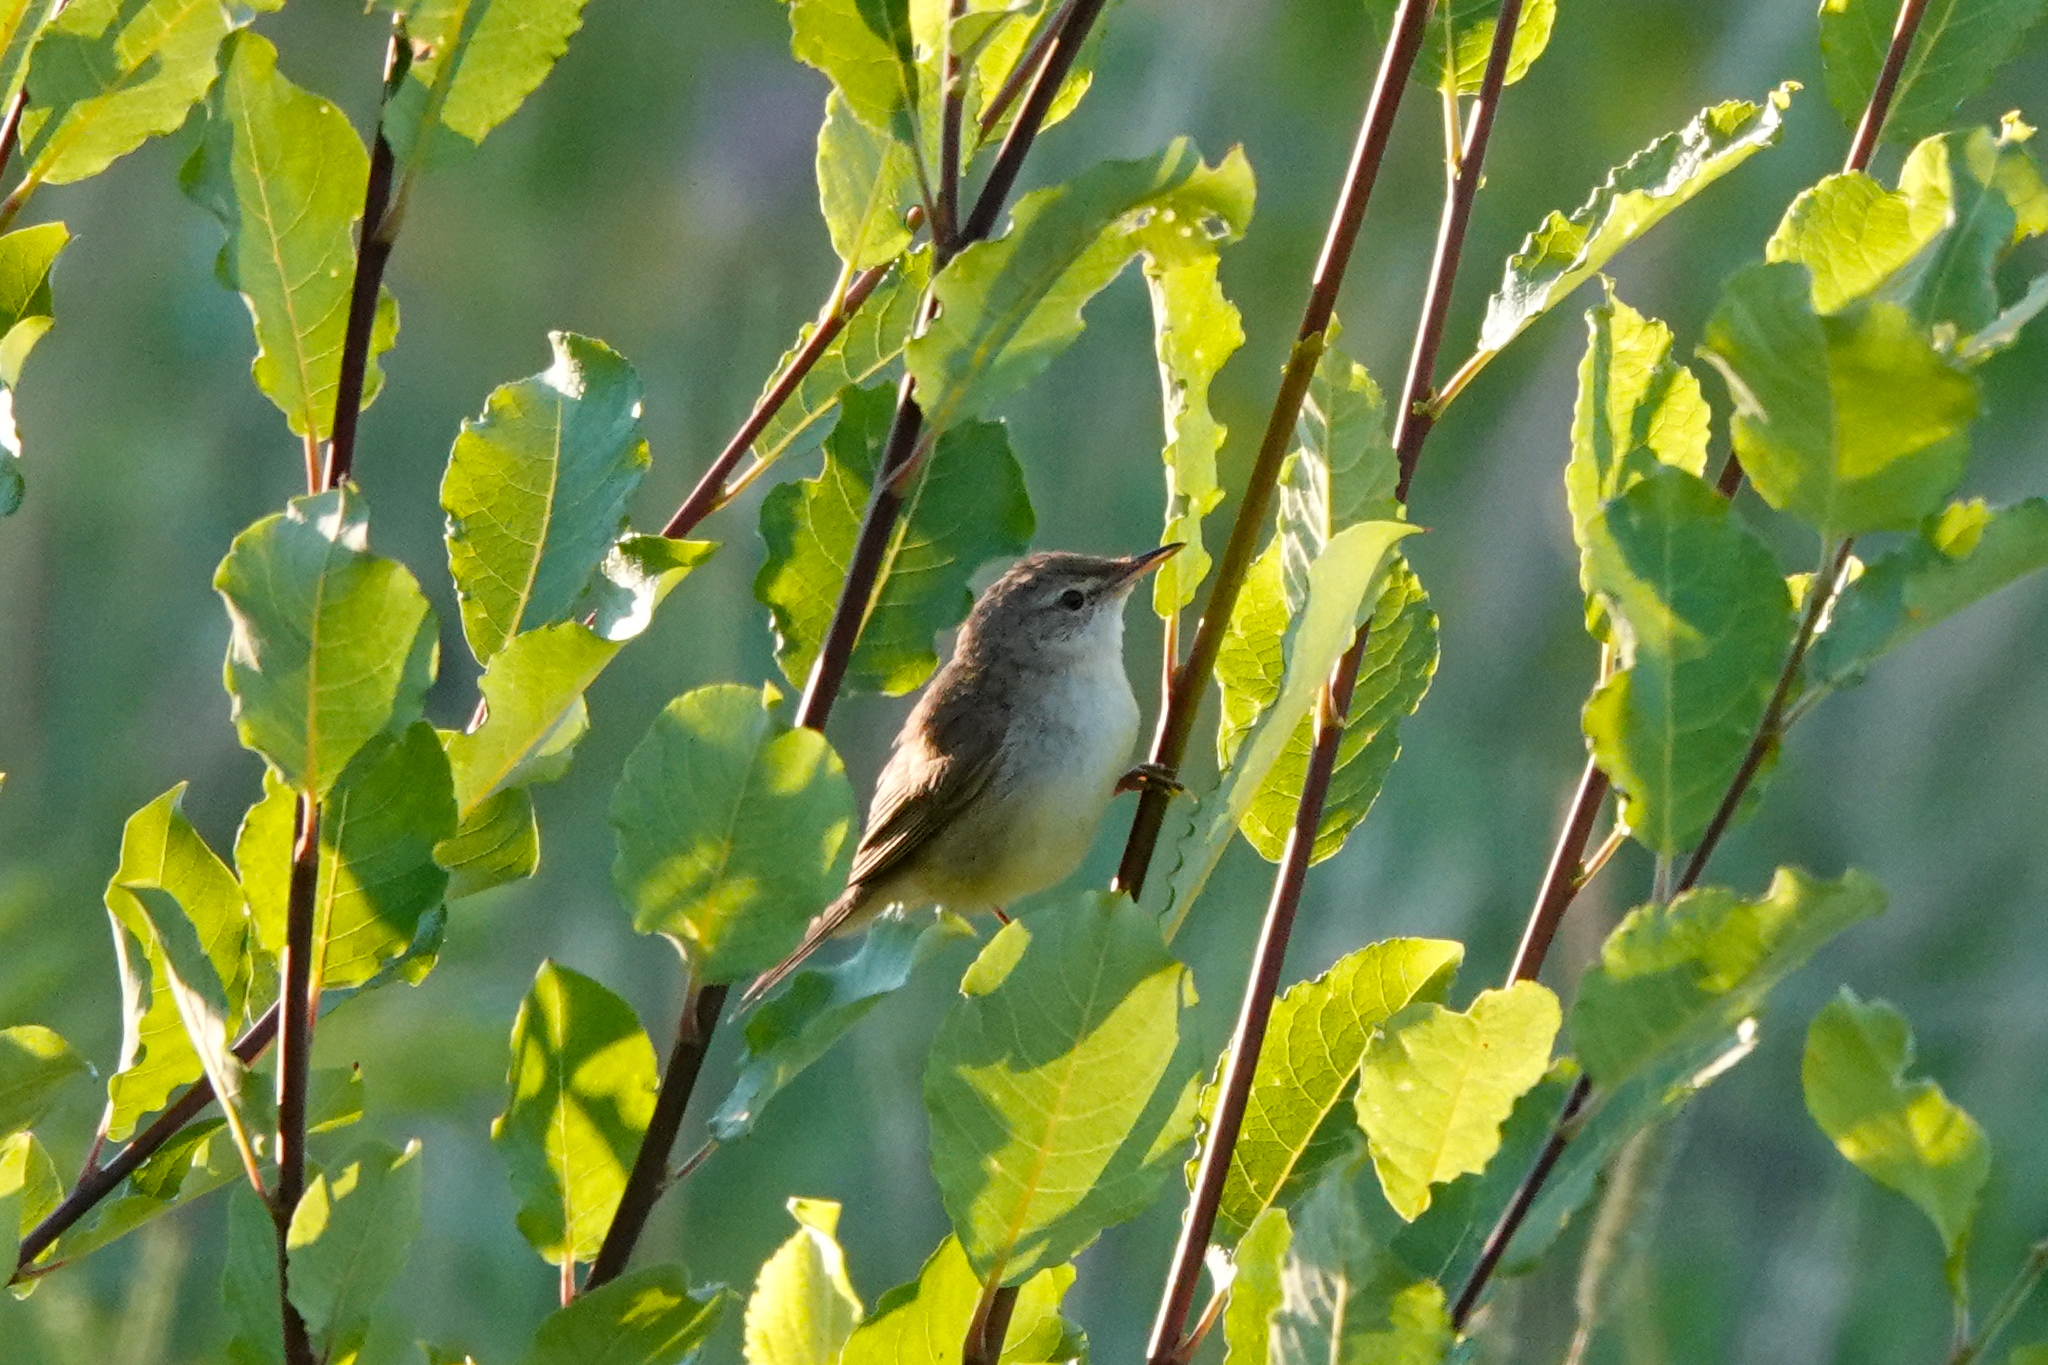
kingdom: Animalia
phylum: Chordata
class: Aves
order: Passeriformes
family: Acrocephalidae
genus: Acrocephalus
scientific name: Acrocephalus dumetorum
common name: Blyth's reed warbler
